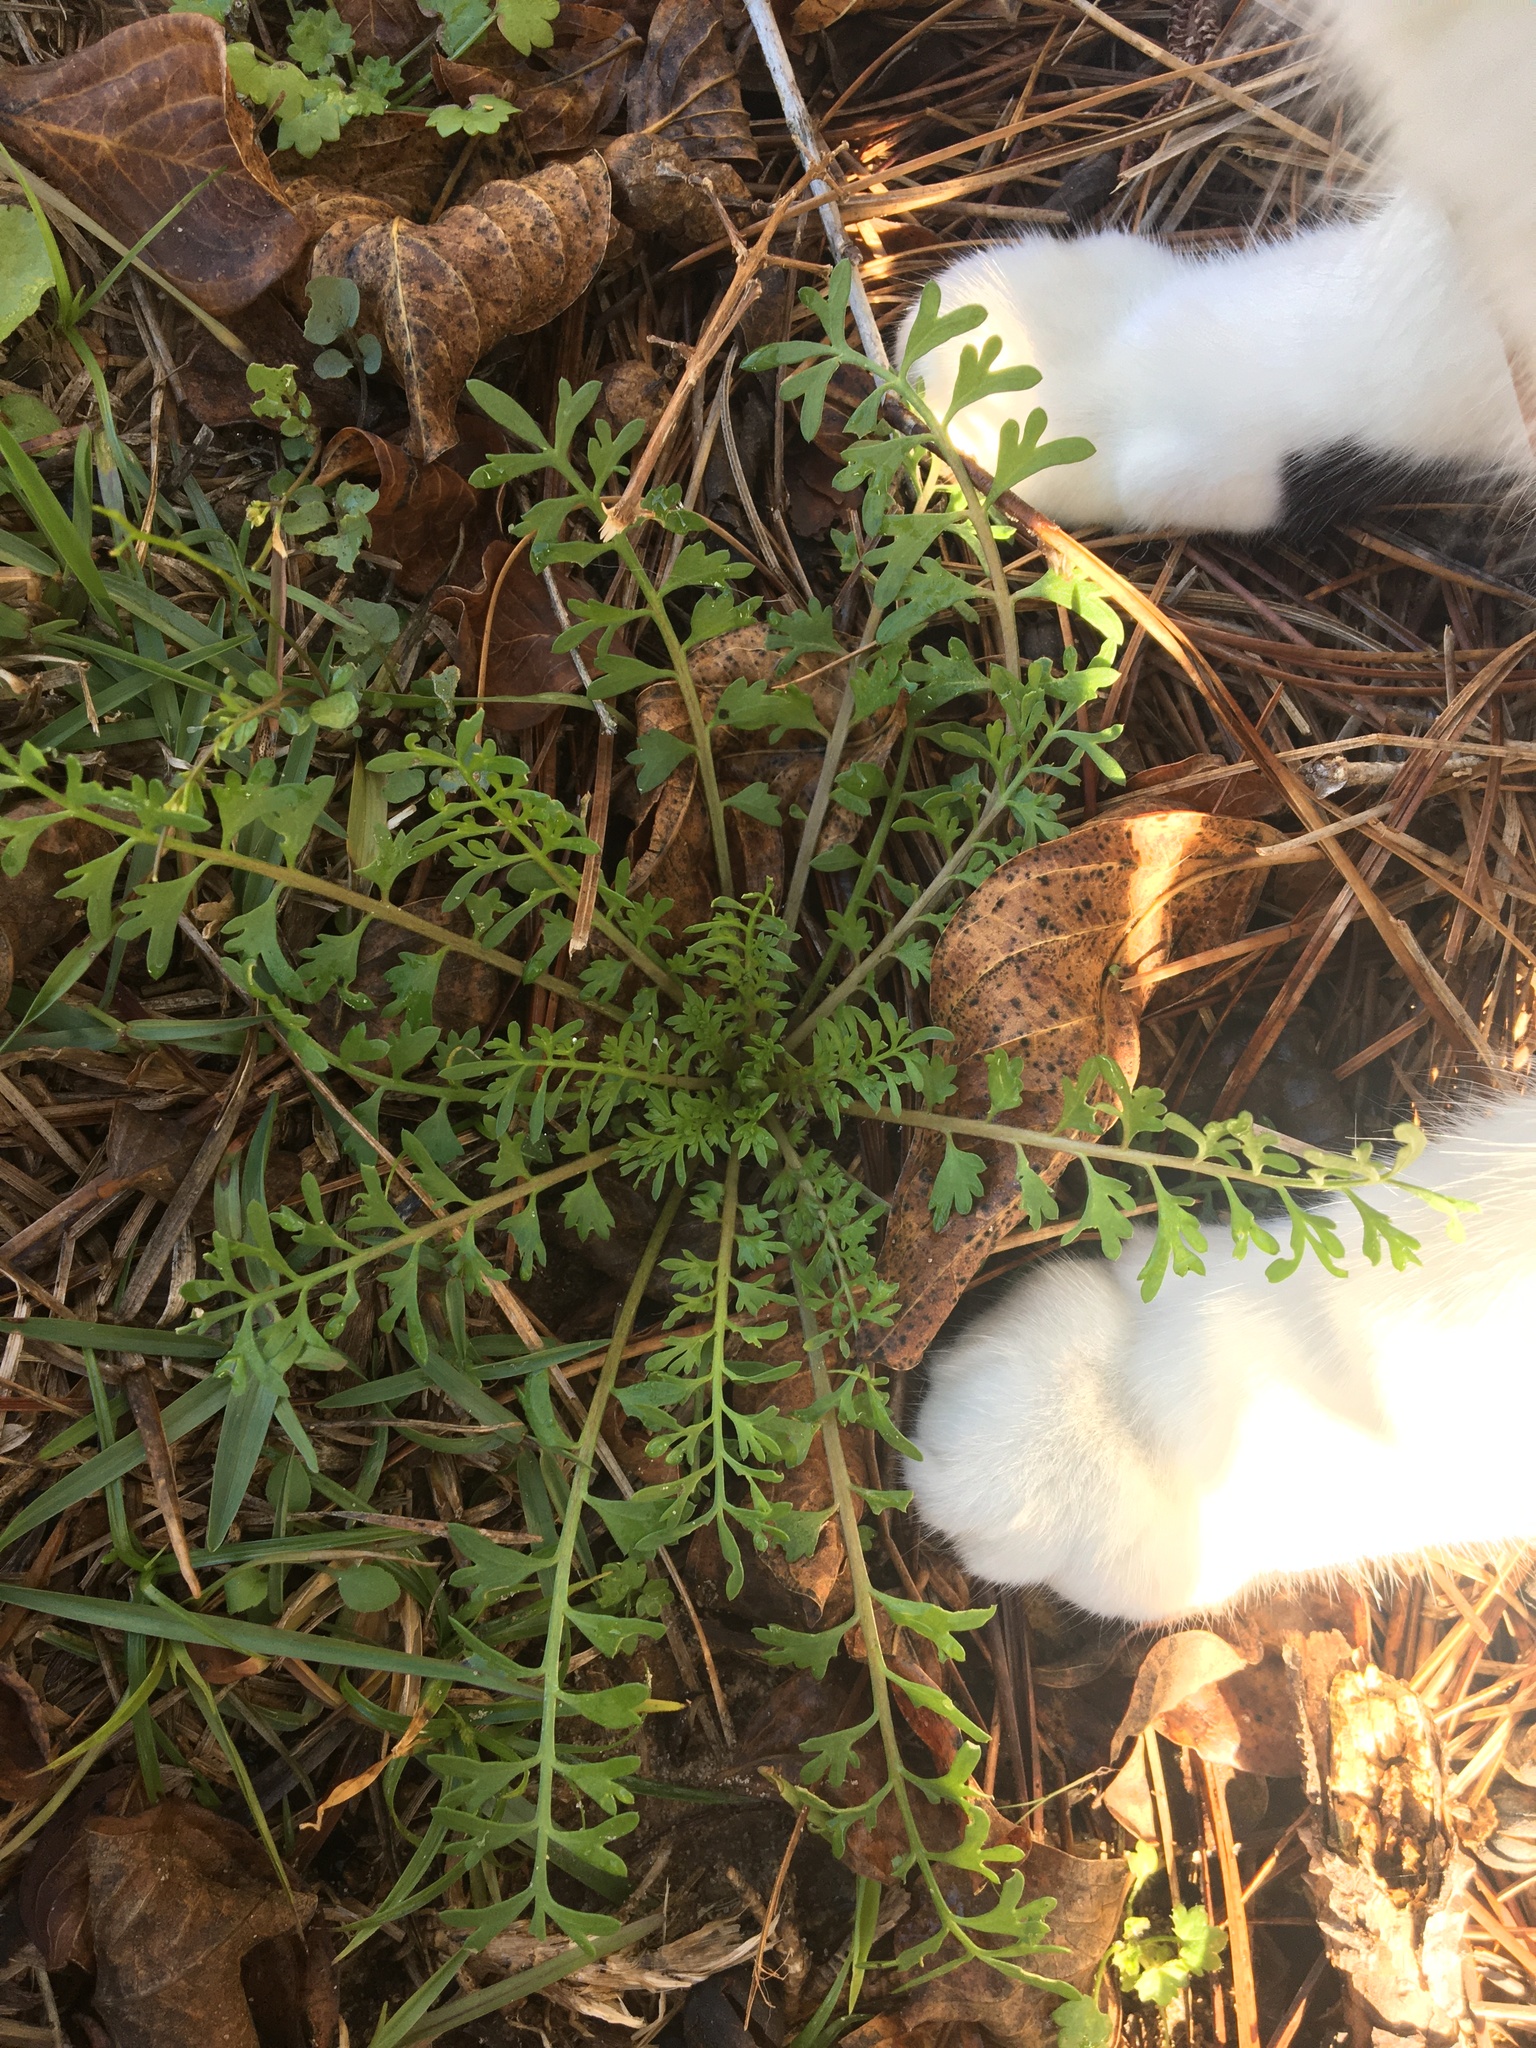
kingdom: Plantae
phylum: Tracheophyta
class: Magnoliopsida
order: Brassicales
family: Brassicaceae
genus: Lepidium
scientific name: Lepidium didymum
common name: Lesser swinecress
